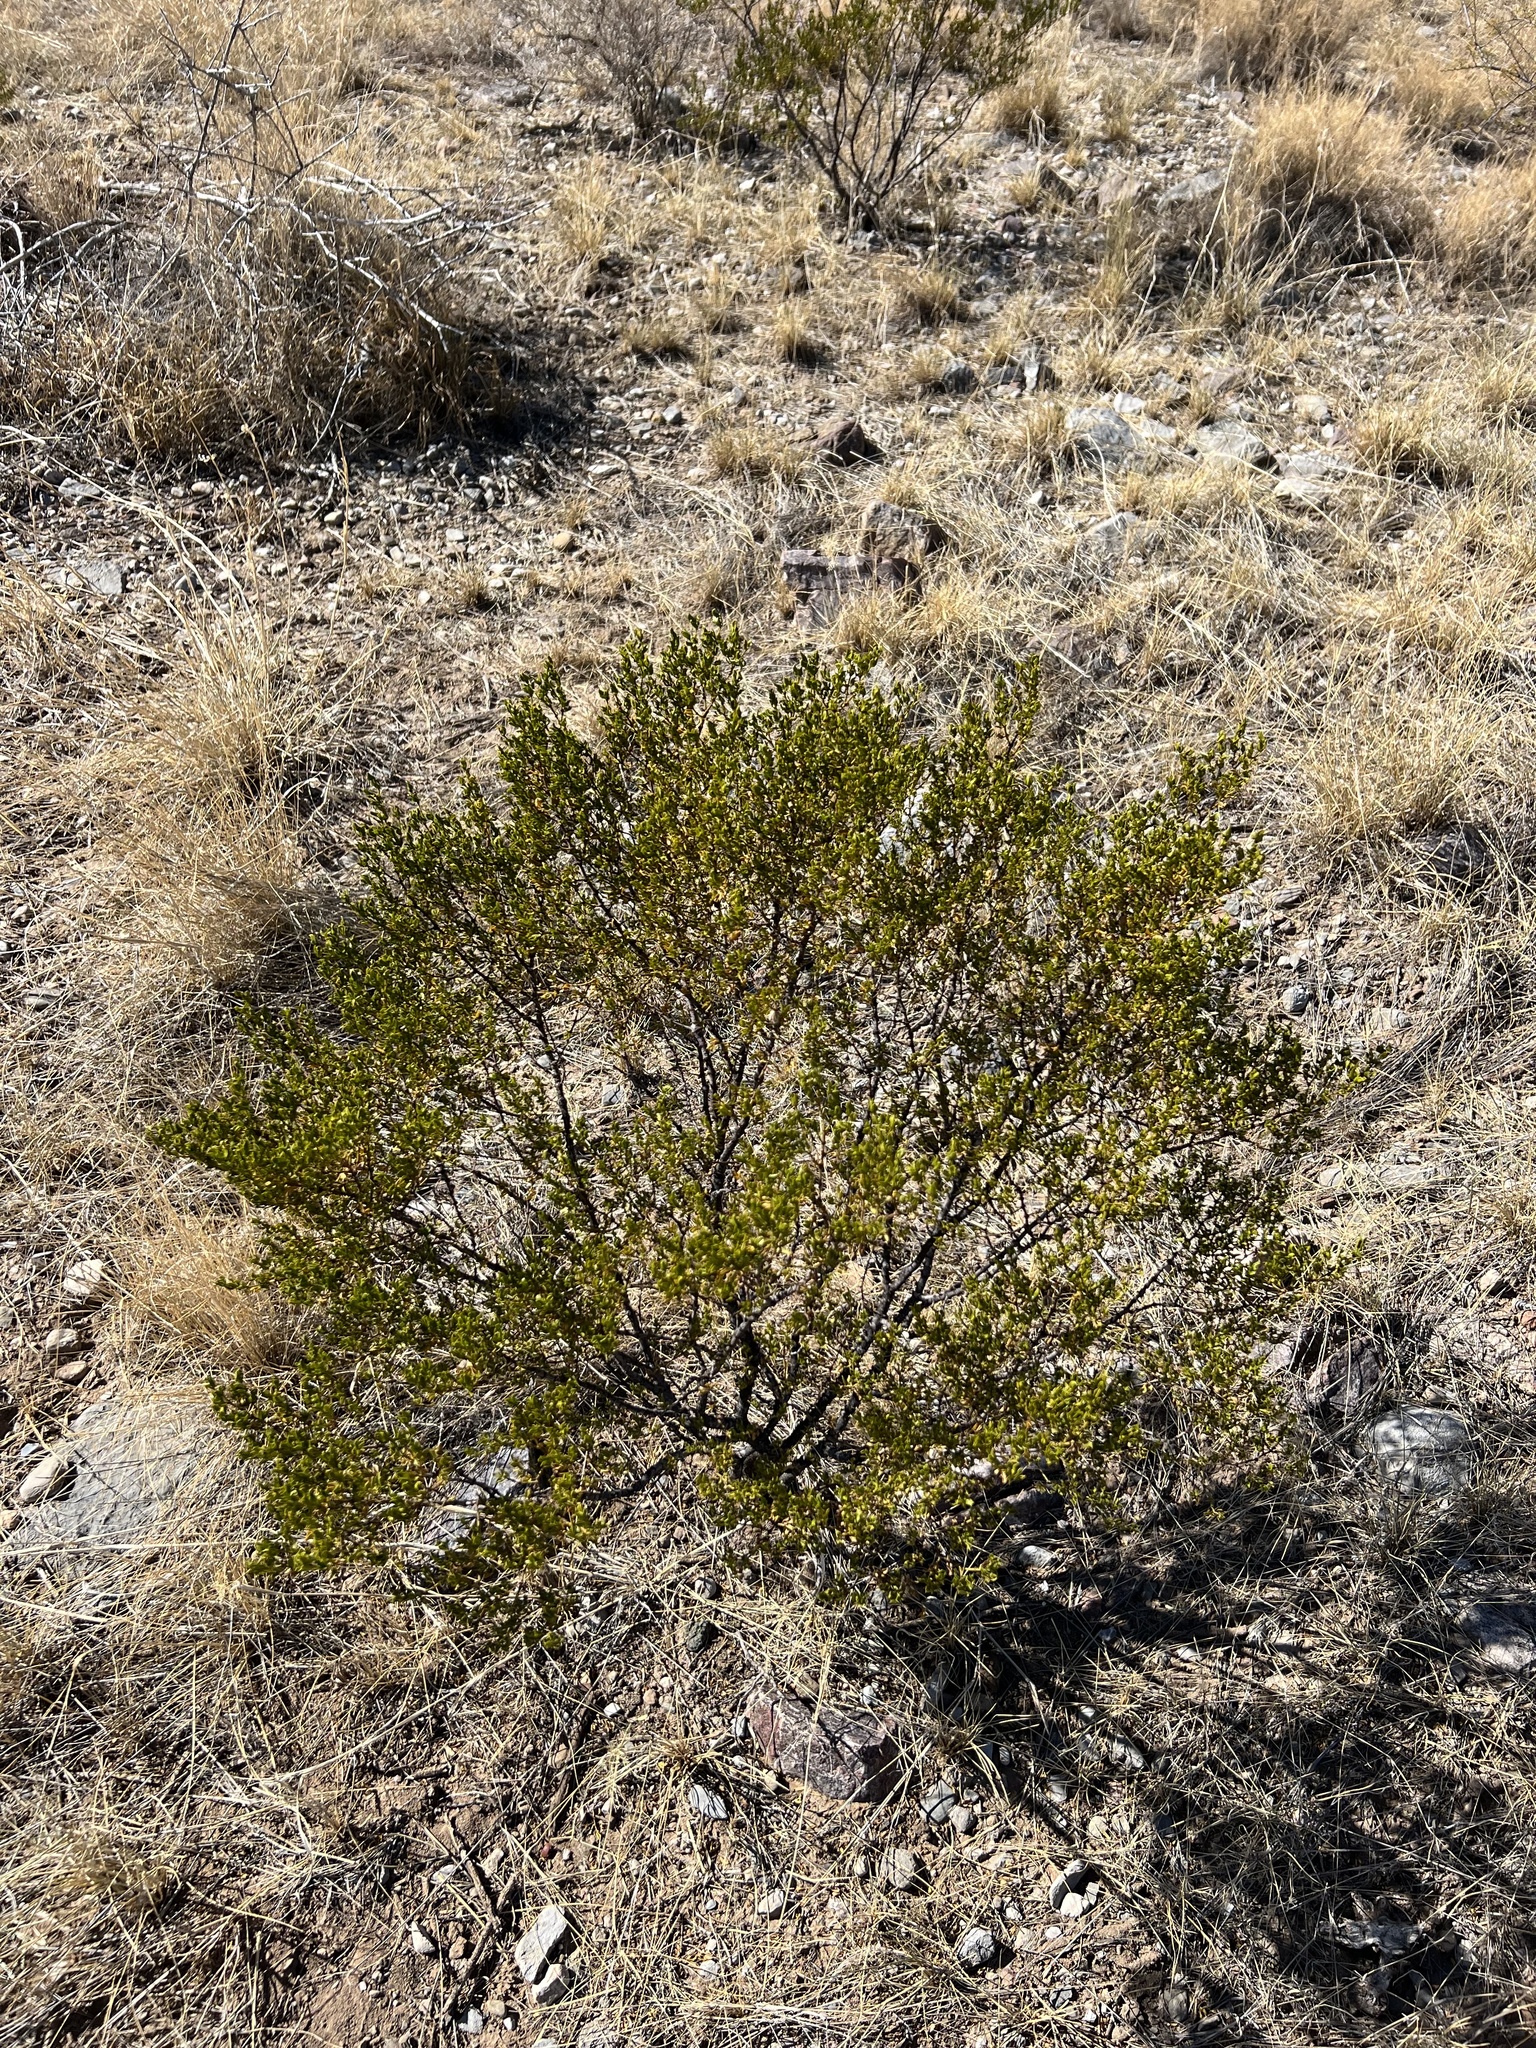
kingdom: Plantae
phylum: Tracheophyta
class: Magnoliopsida
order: Zygophyllales
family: Zygophyllaceae
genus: Larrea
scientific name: Larrea tridentata
